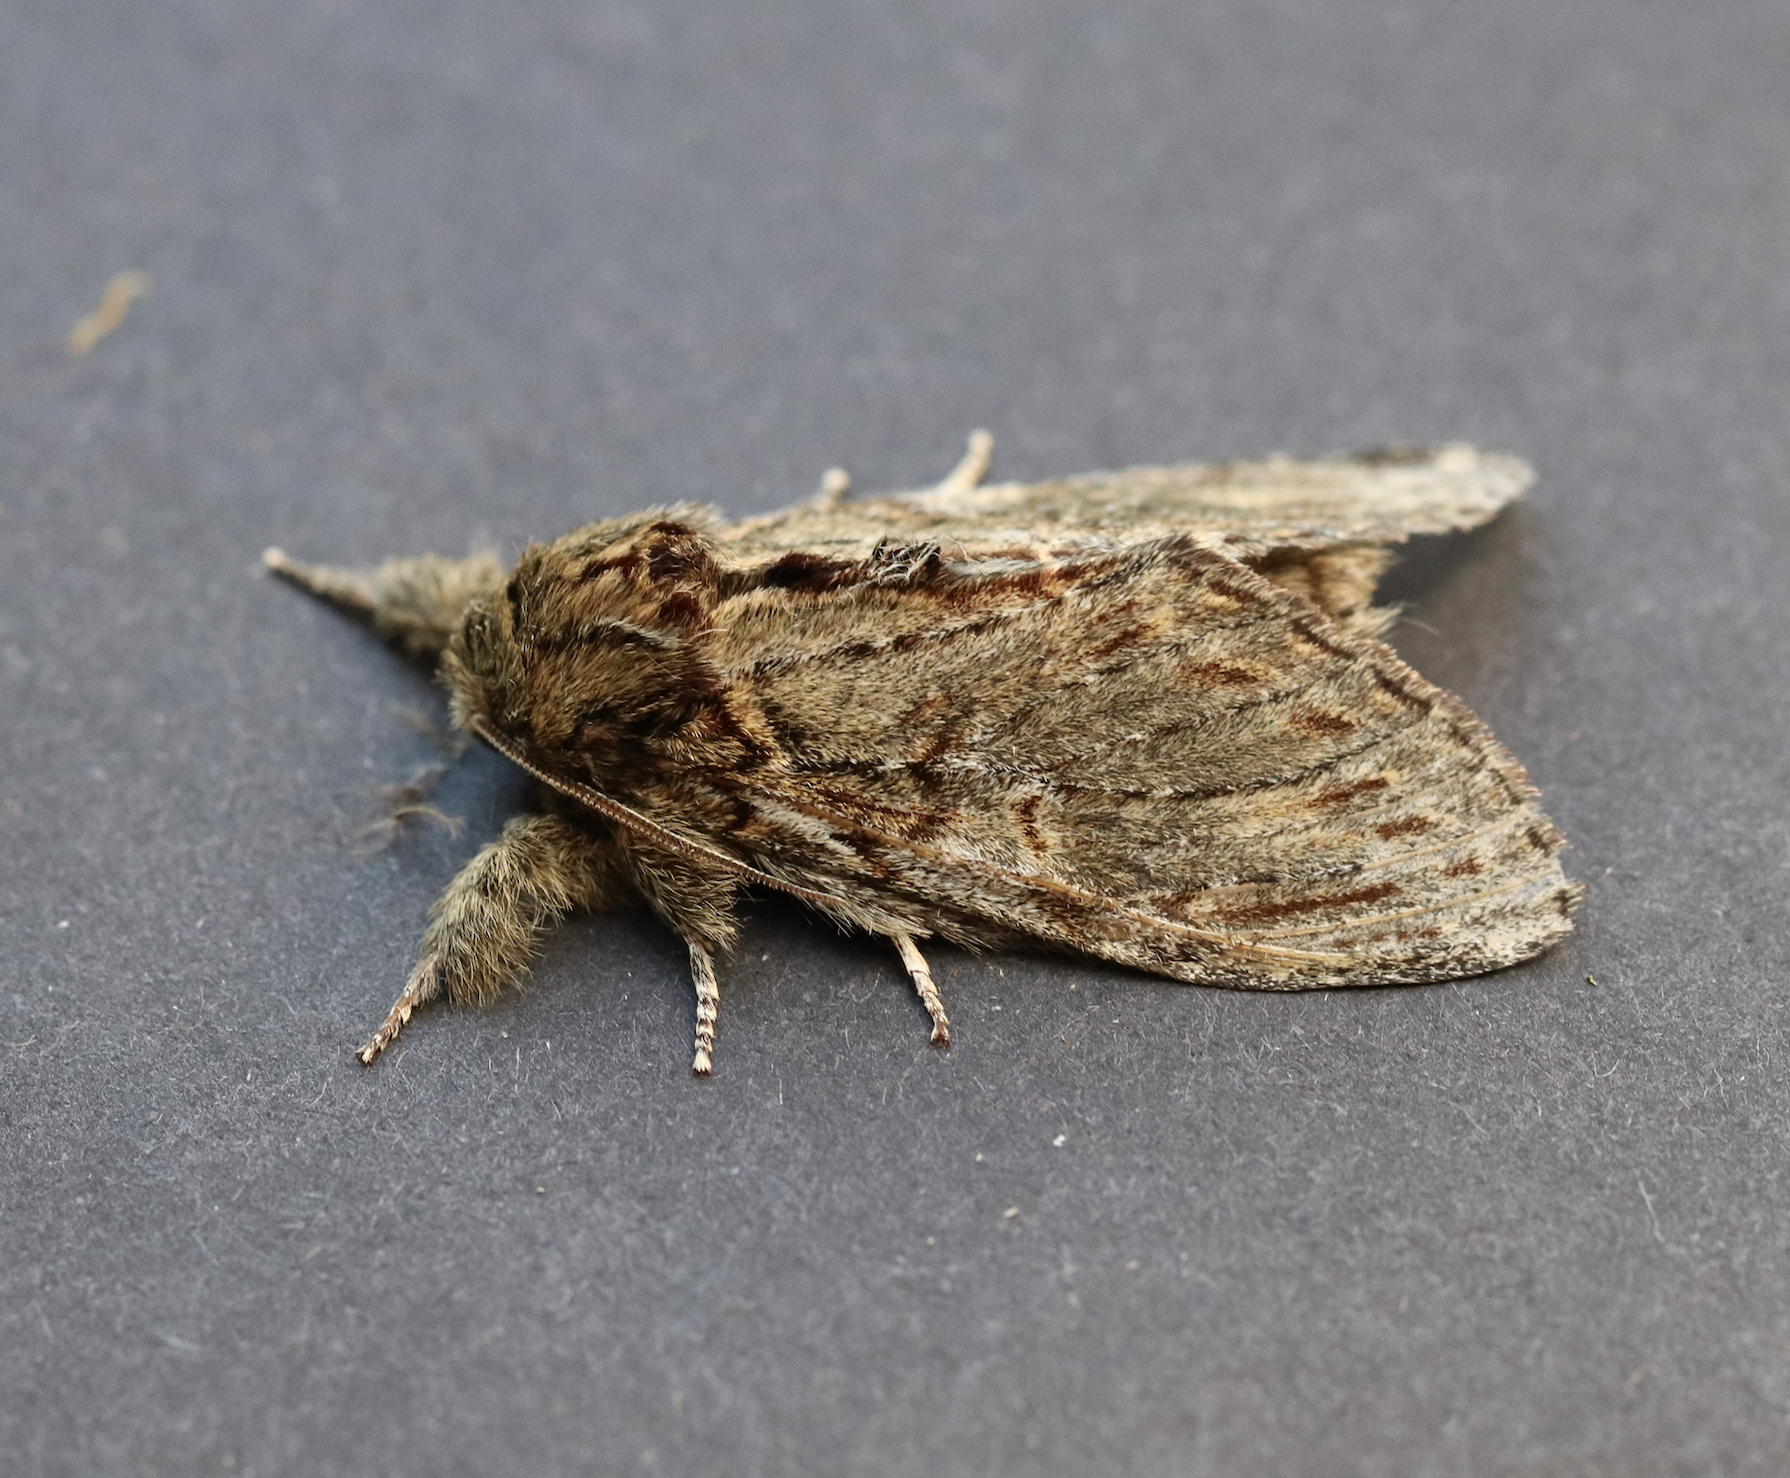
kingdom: Animalia
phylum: Arthropoda
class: Insecta
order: Lepidoptera
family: Notodontidae
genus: Peridea
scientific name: Peridea anceps
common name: Great prominent
